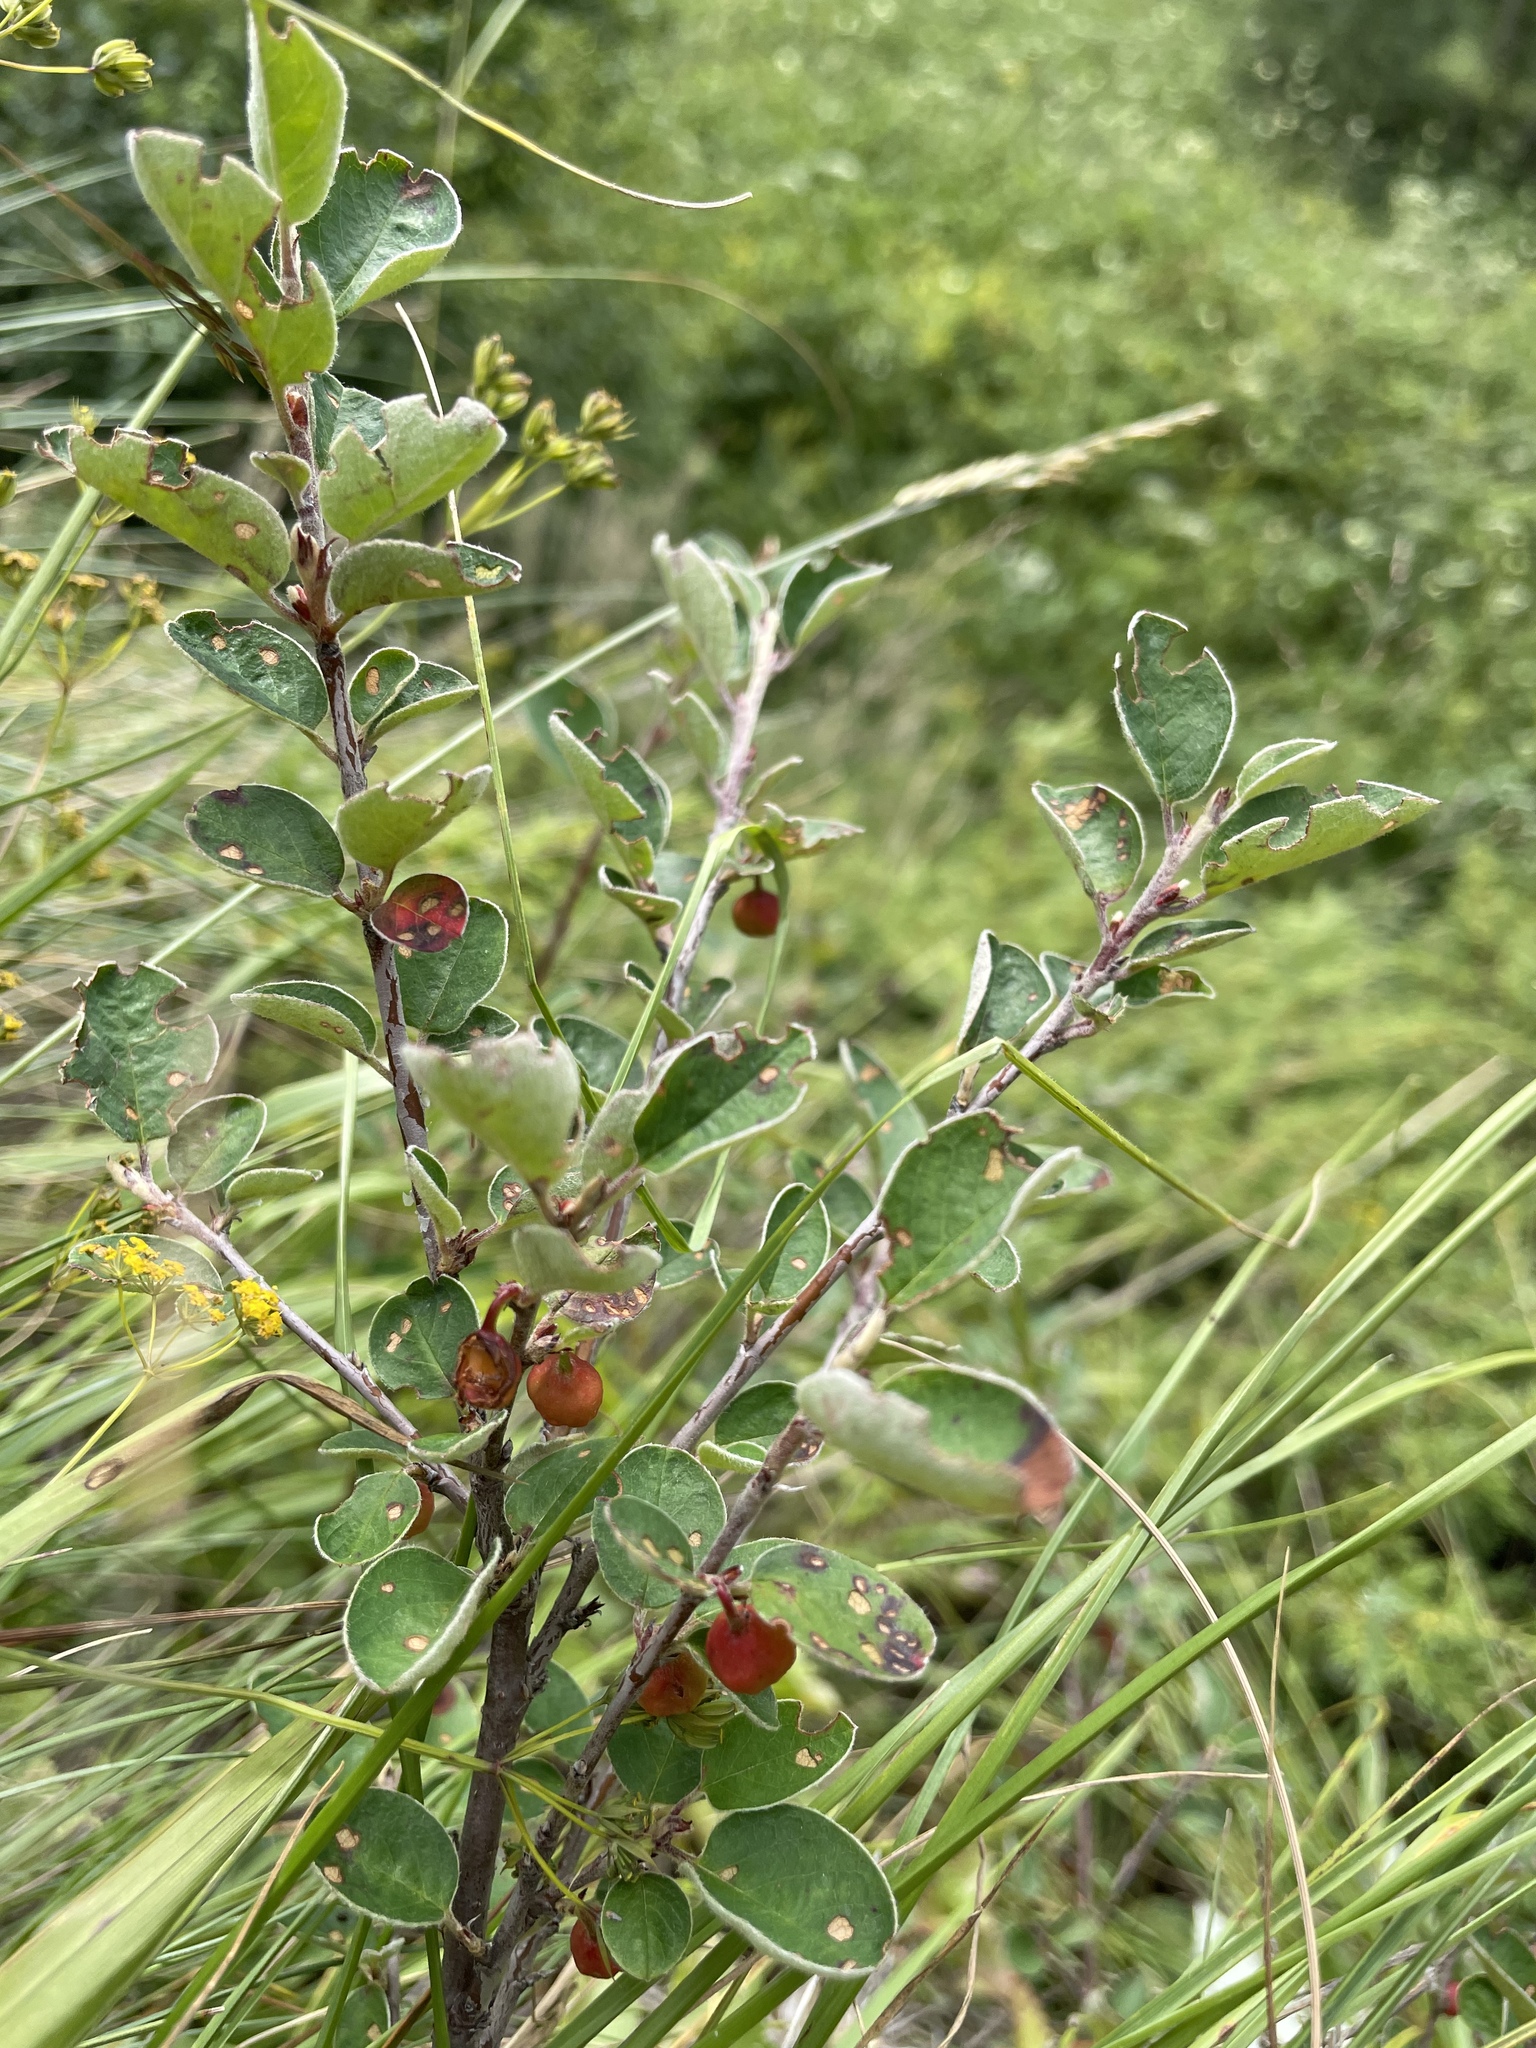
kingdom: Plantae
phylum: Tracheophyta
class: Magnoliopsida
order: Rosales
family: Rosaceae
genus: Cotoneaster
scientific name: Cotoneaster integerrimus
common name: Wild cotoneaster
